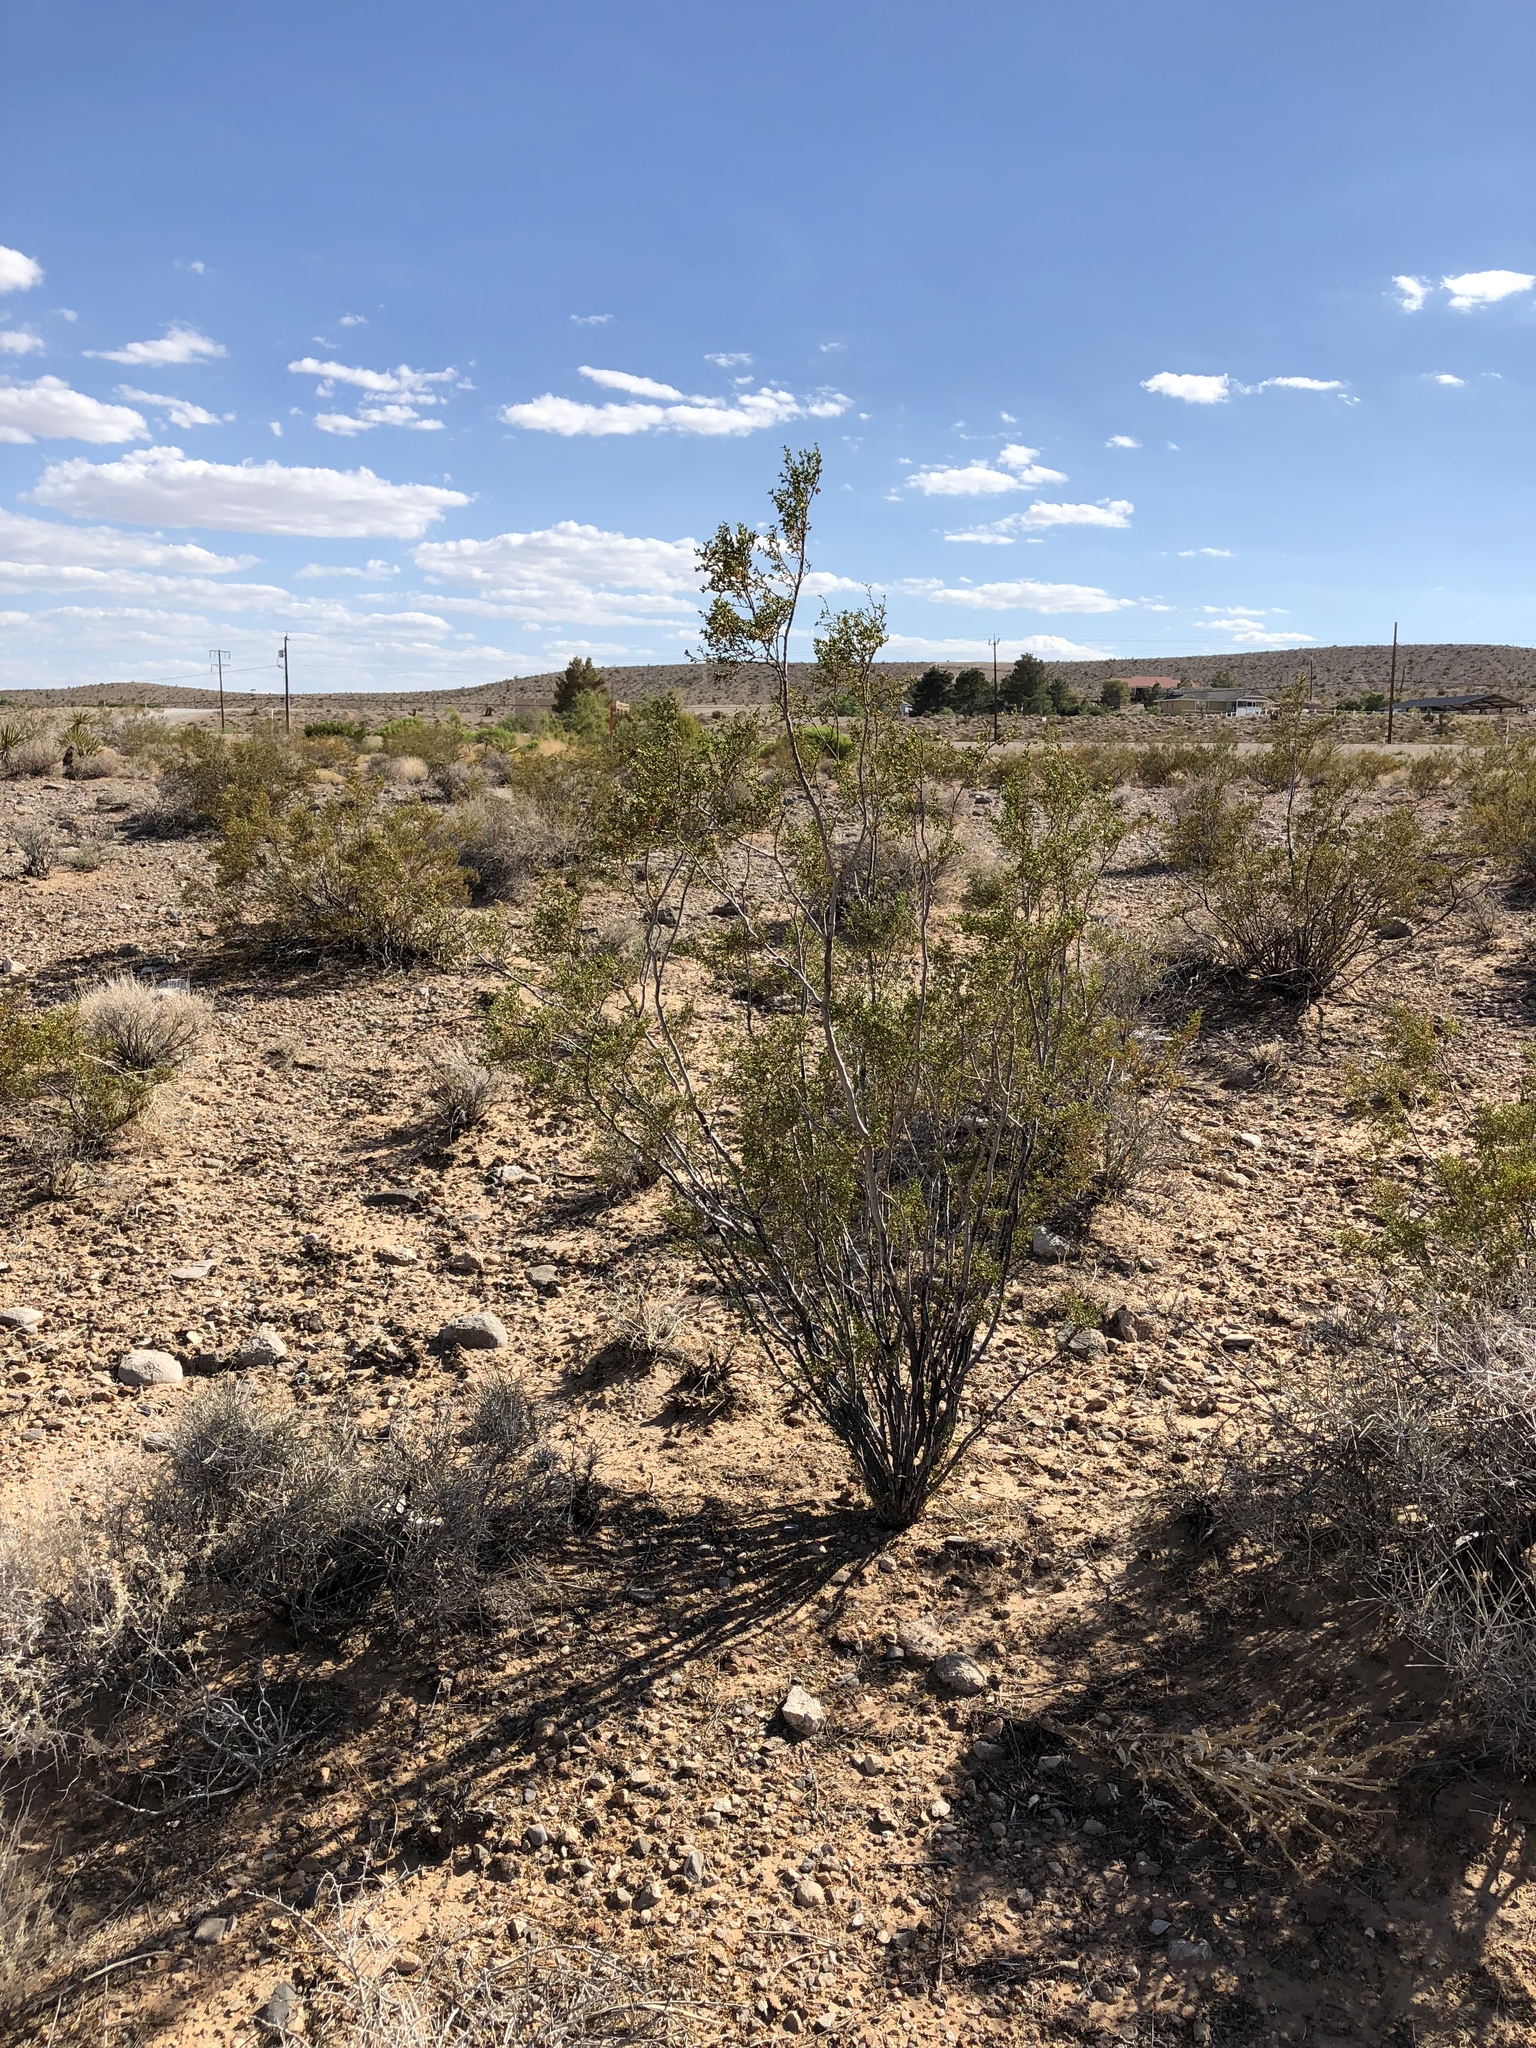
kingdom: Plantae
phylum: Tracheophyta
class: Magnoliopsida
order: Zygophyllales
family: Zygophyllaceae
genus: Larrea
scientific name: Larrea tridentata
